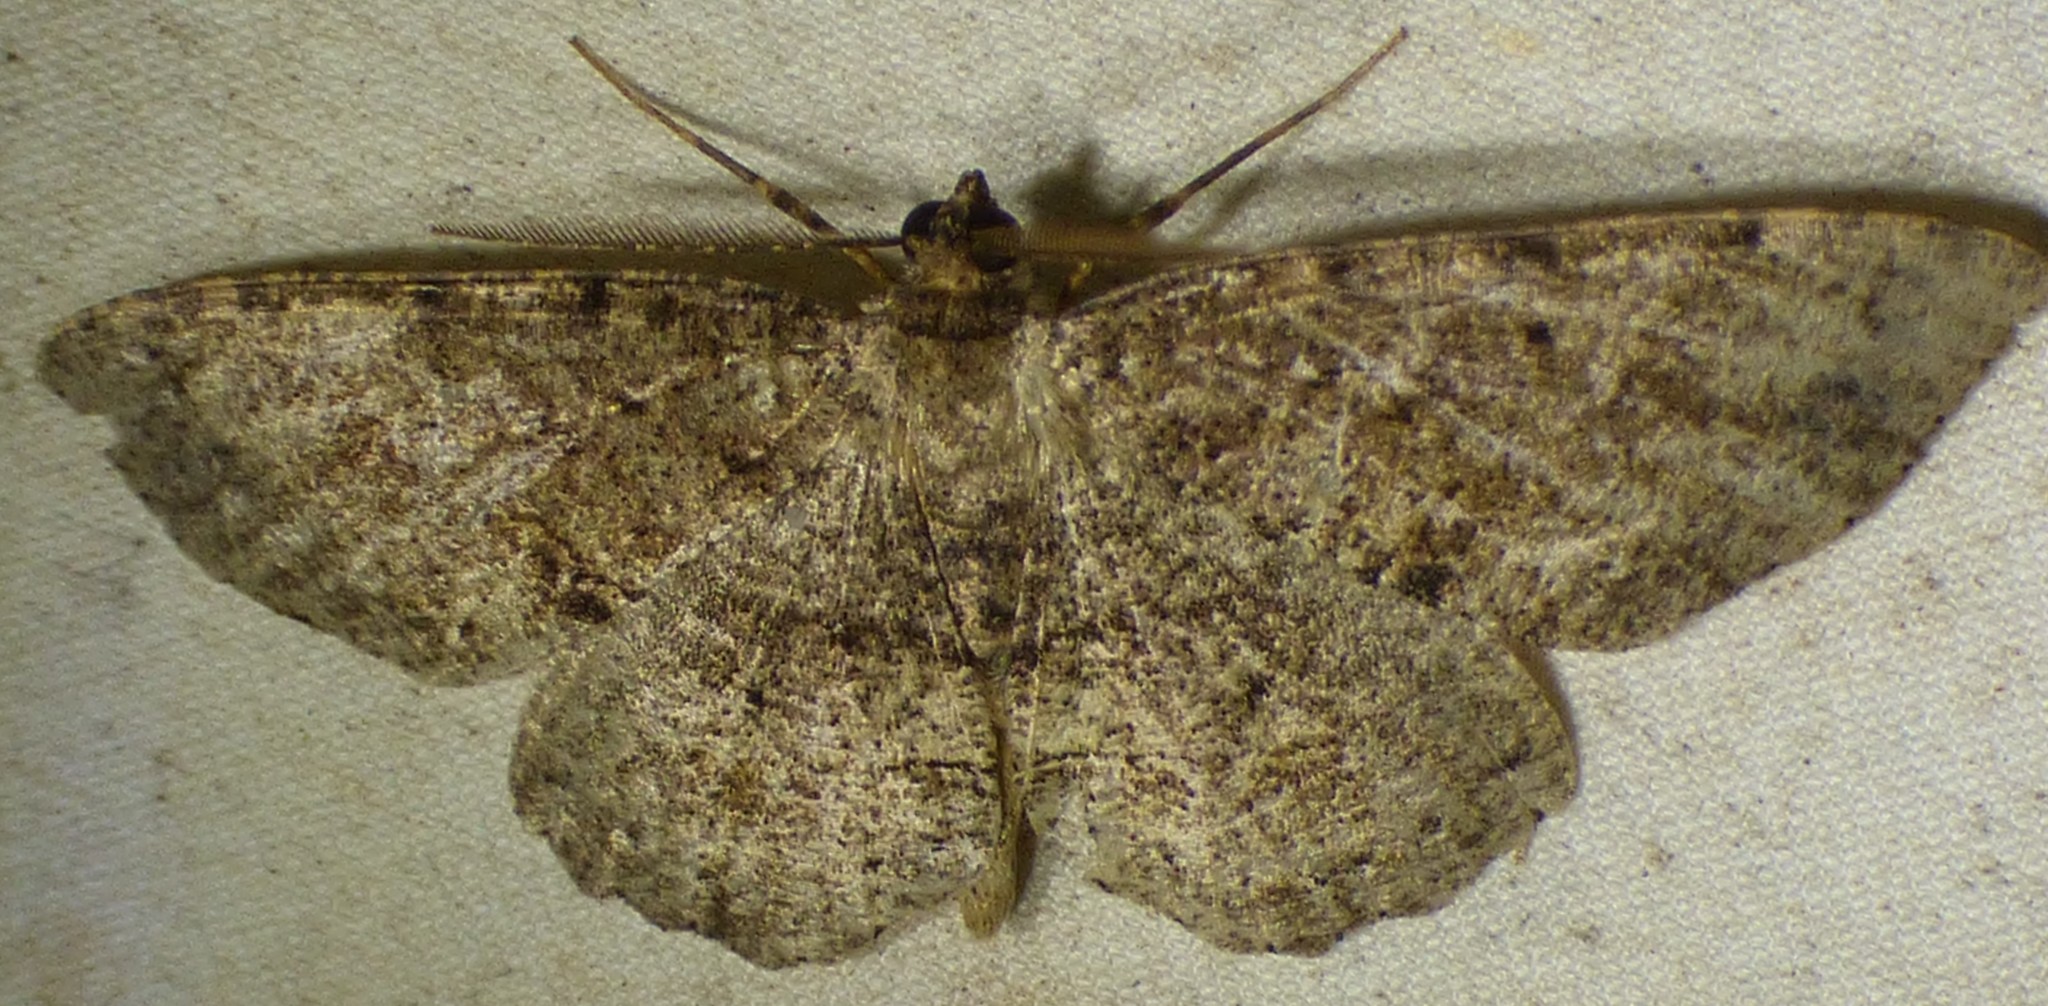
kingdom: Animalia
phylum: Arthropoda
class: Insecta
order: Lepidoptera
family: Geometridae
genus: Melanolophia
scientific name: Melanolophia canadaria
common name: Canadian melanolophia
